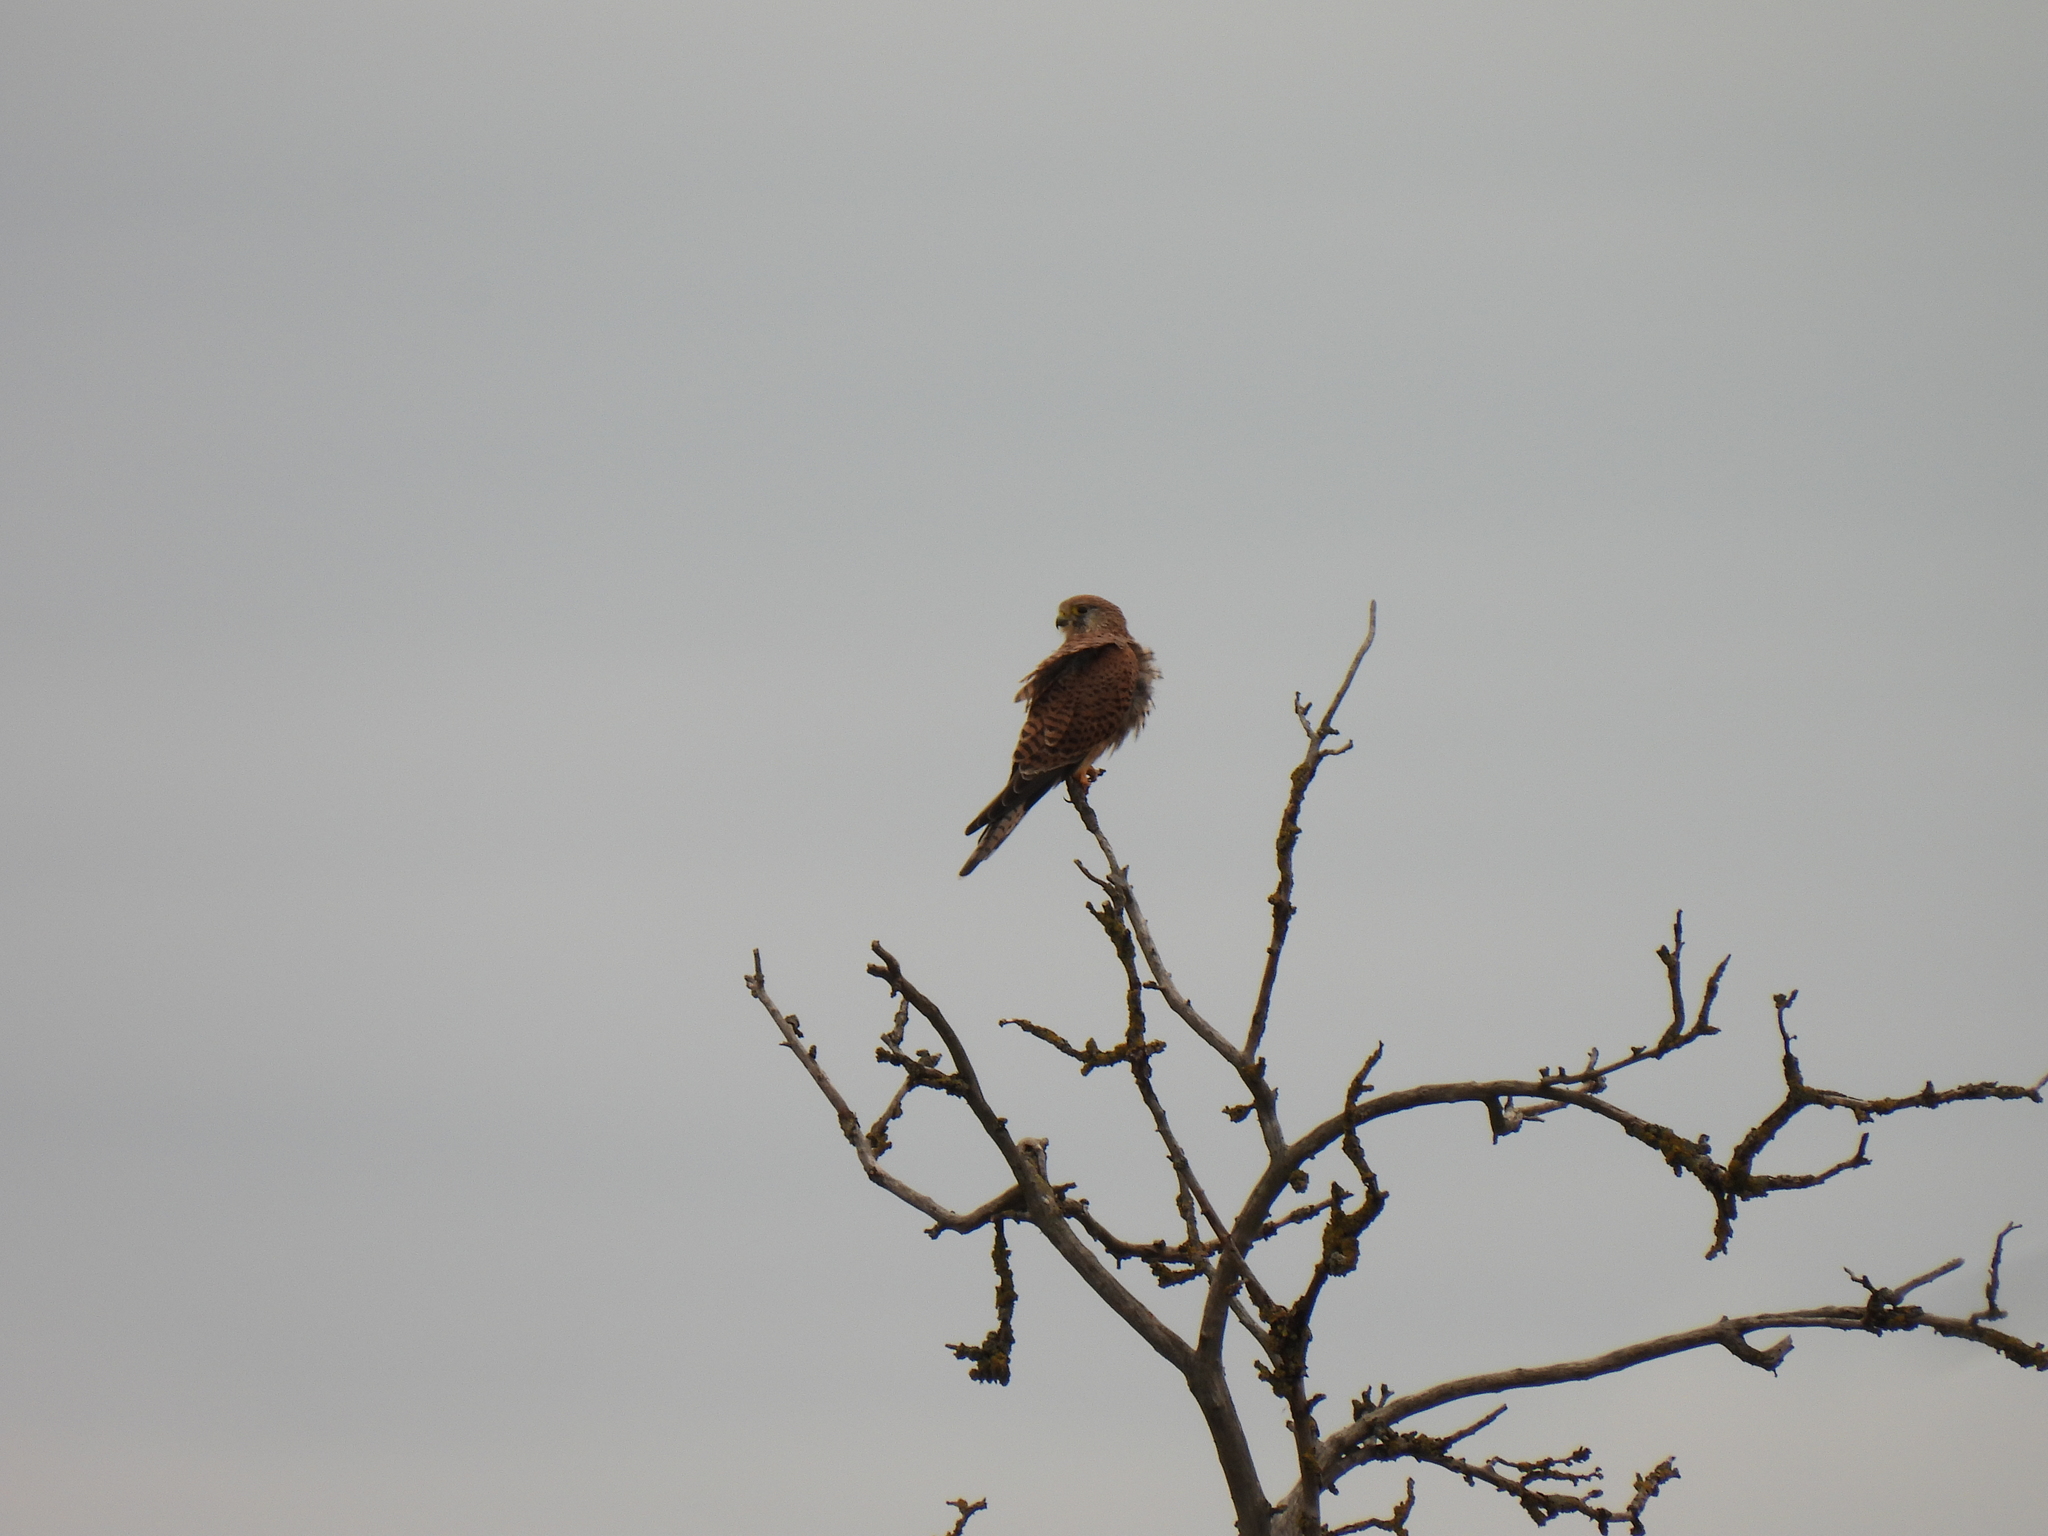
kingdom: Animalia
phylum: Chordata
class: Aves
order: Falconiformes
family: Falconidae
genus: Falco
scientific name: Falco tinnunculus
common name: Common kestrel
